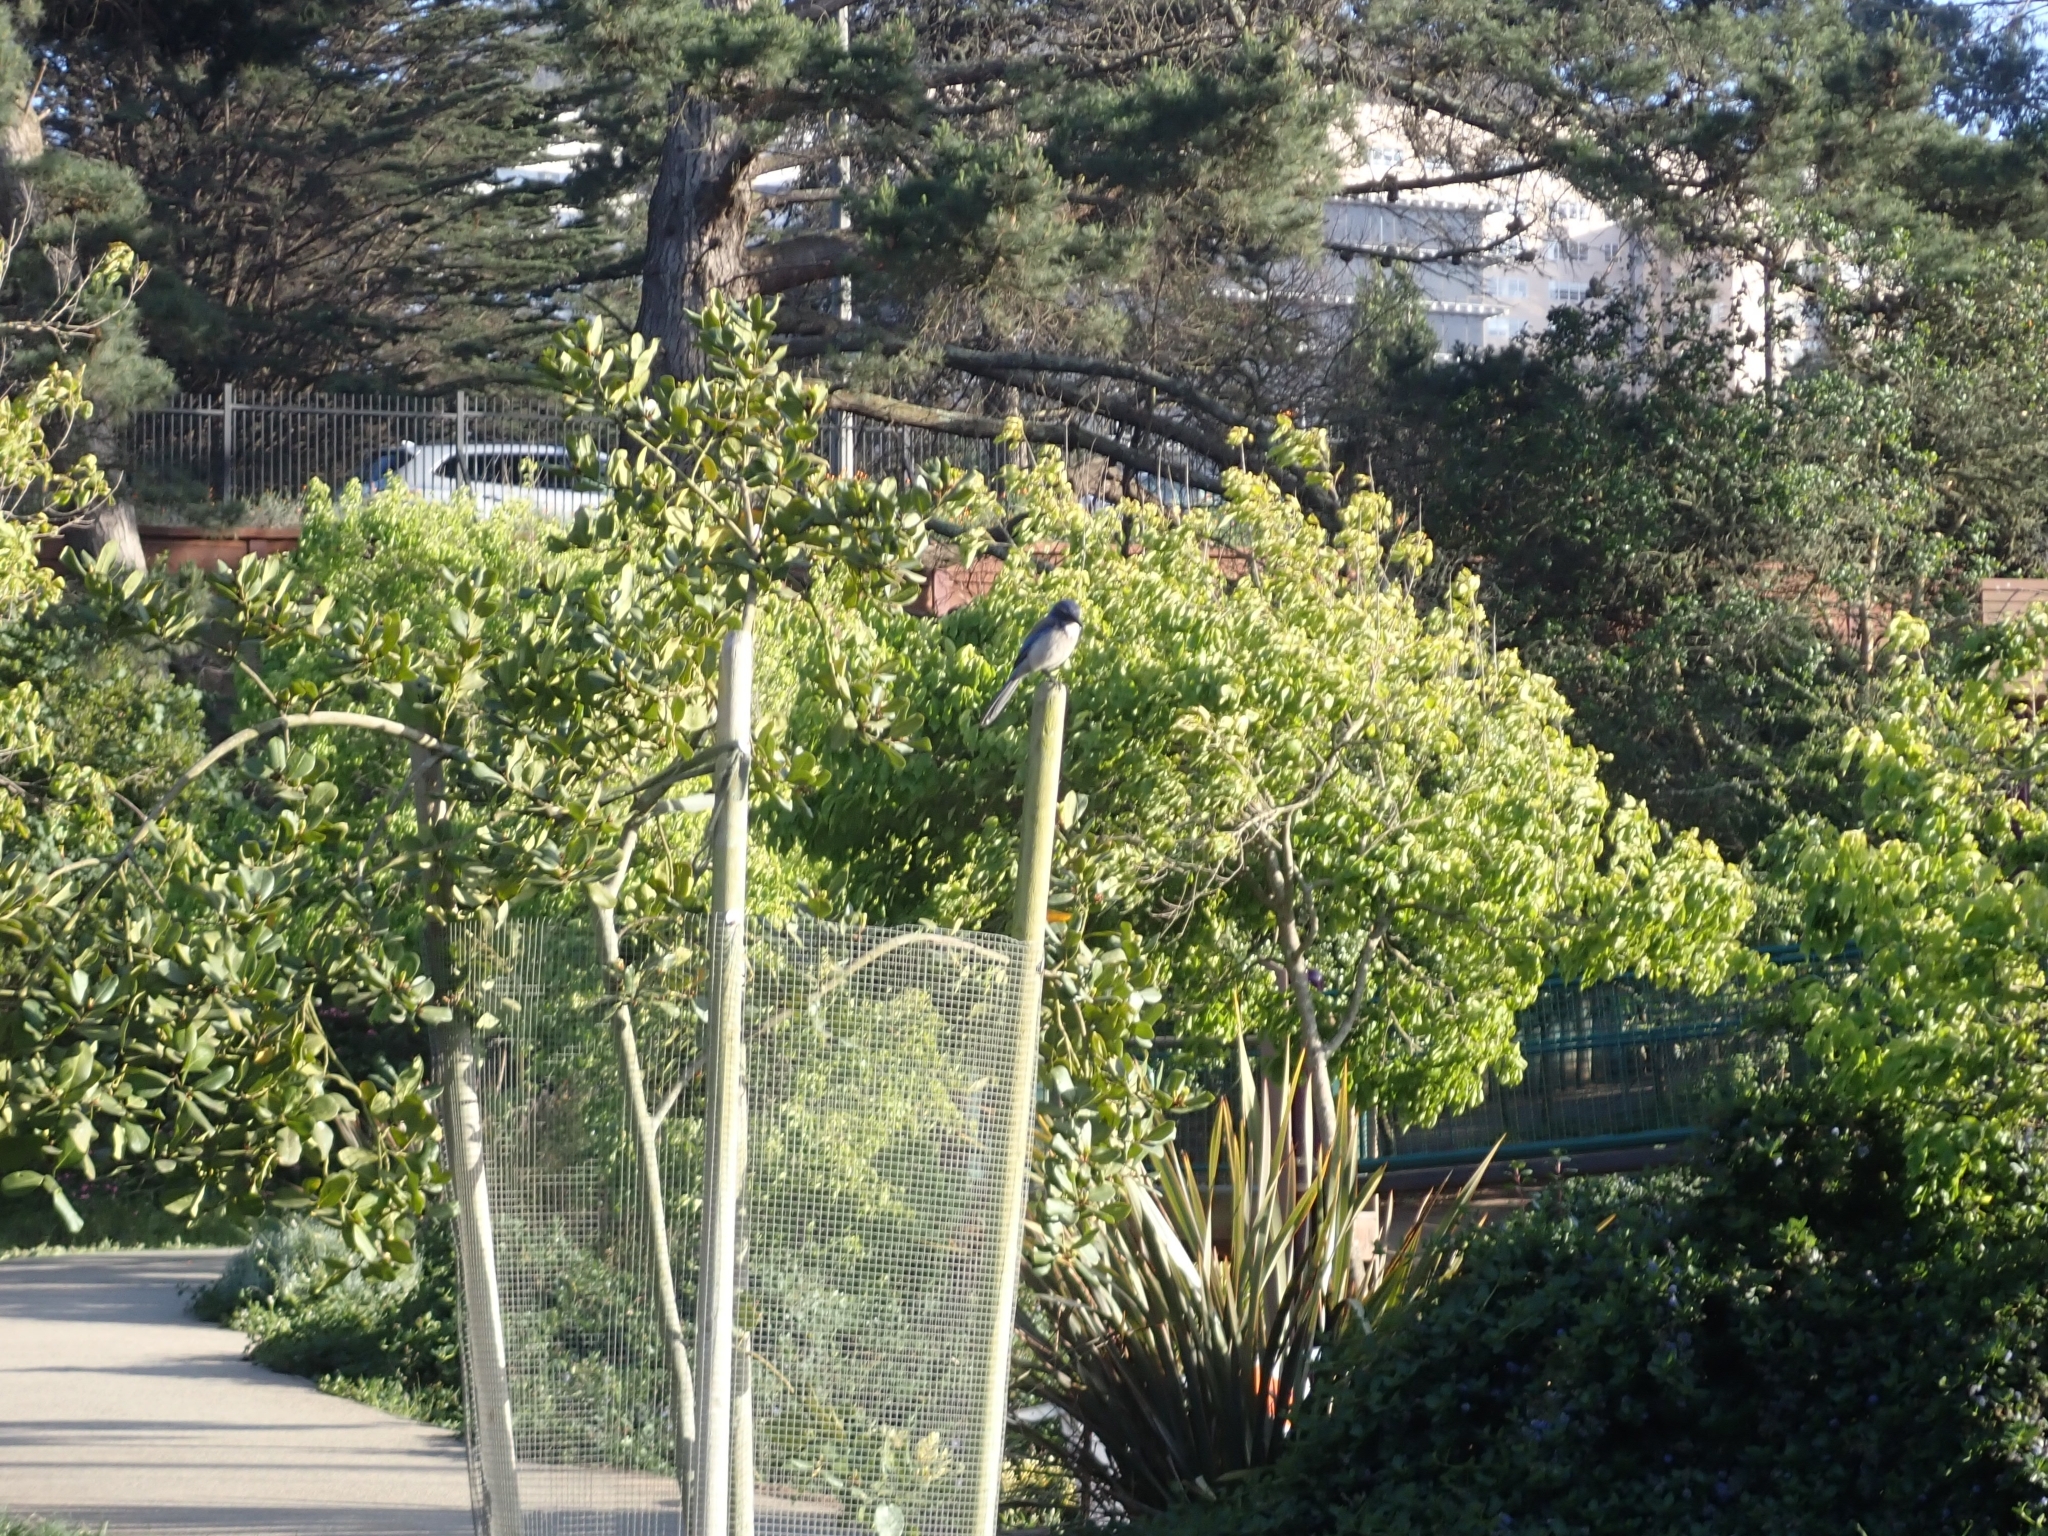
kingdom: Animalia
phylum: Chordata
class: Aves
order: Passeriformes
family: Corvidae
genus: Aphelocoma
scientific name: Aphelocoma californica
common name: California scrub-jay
